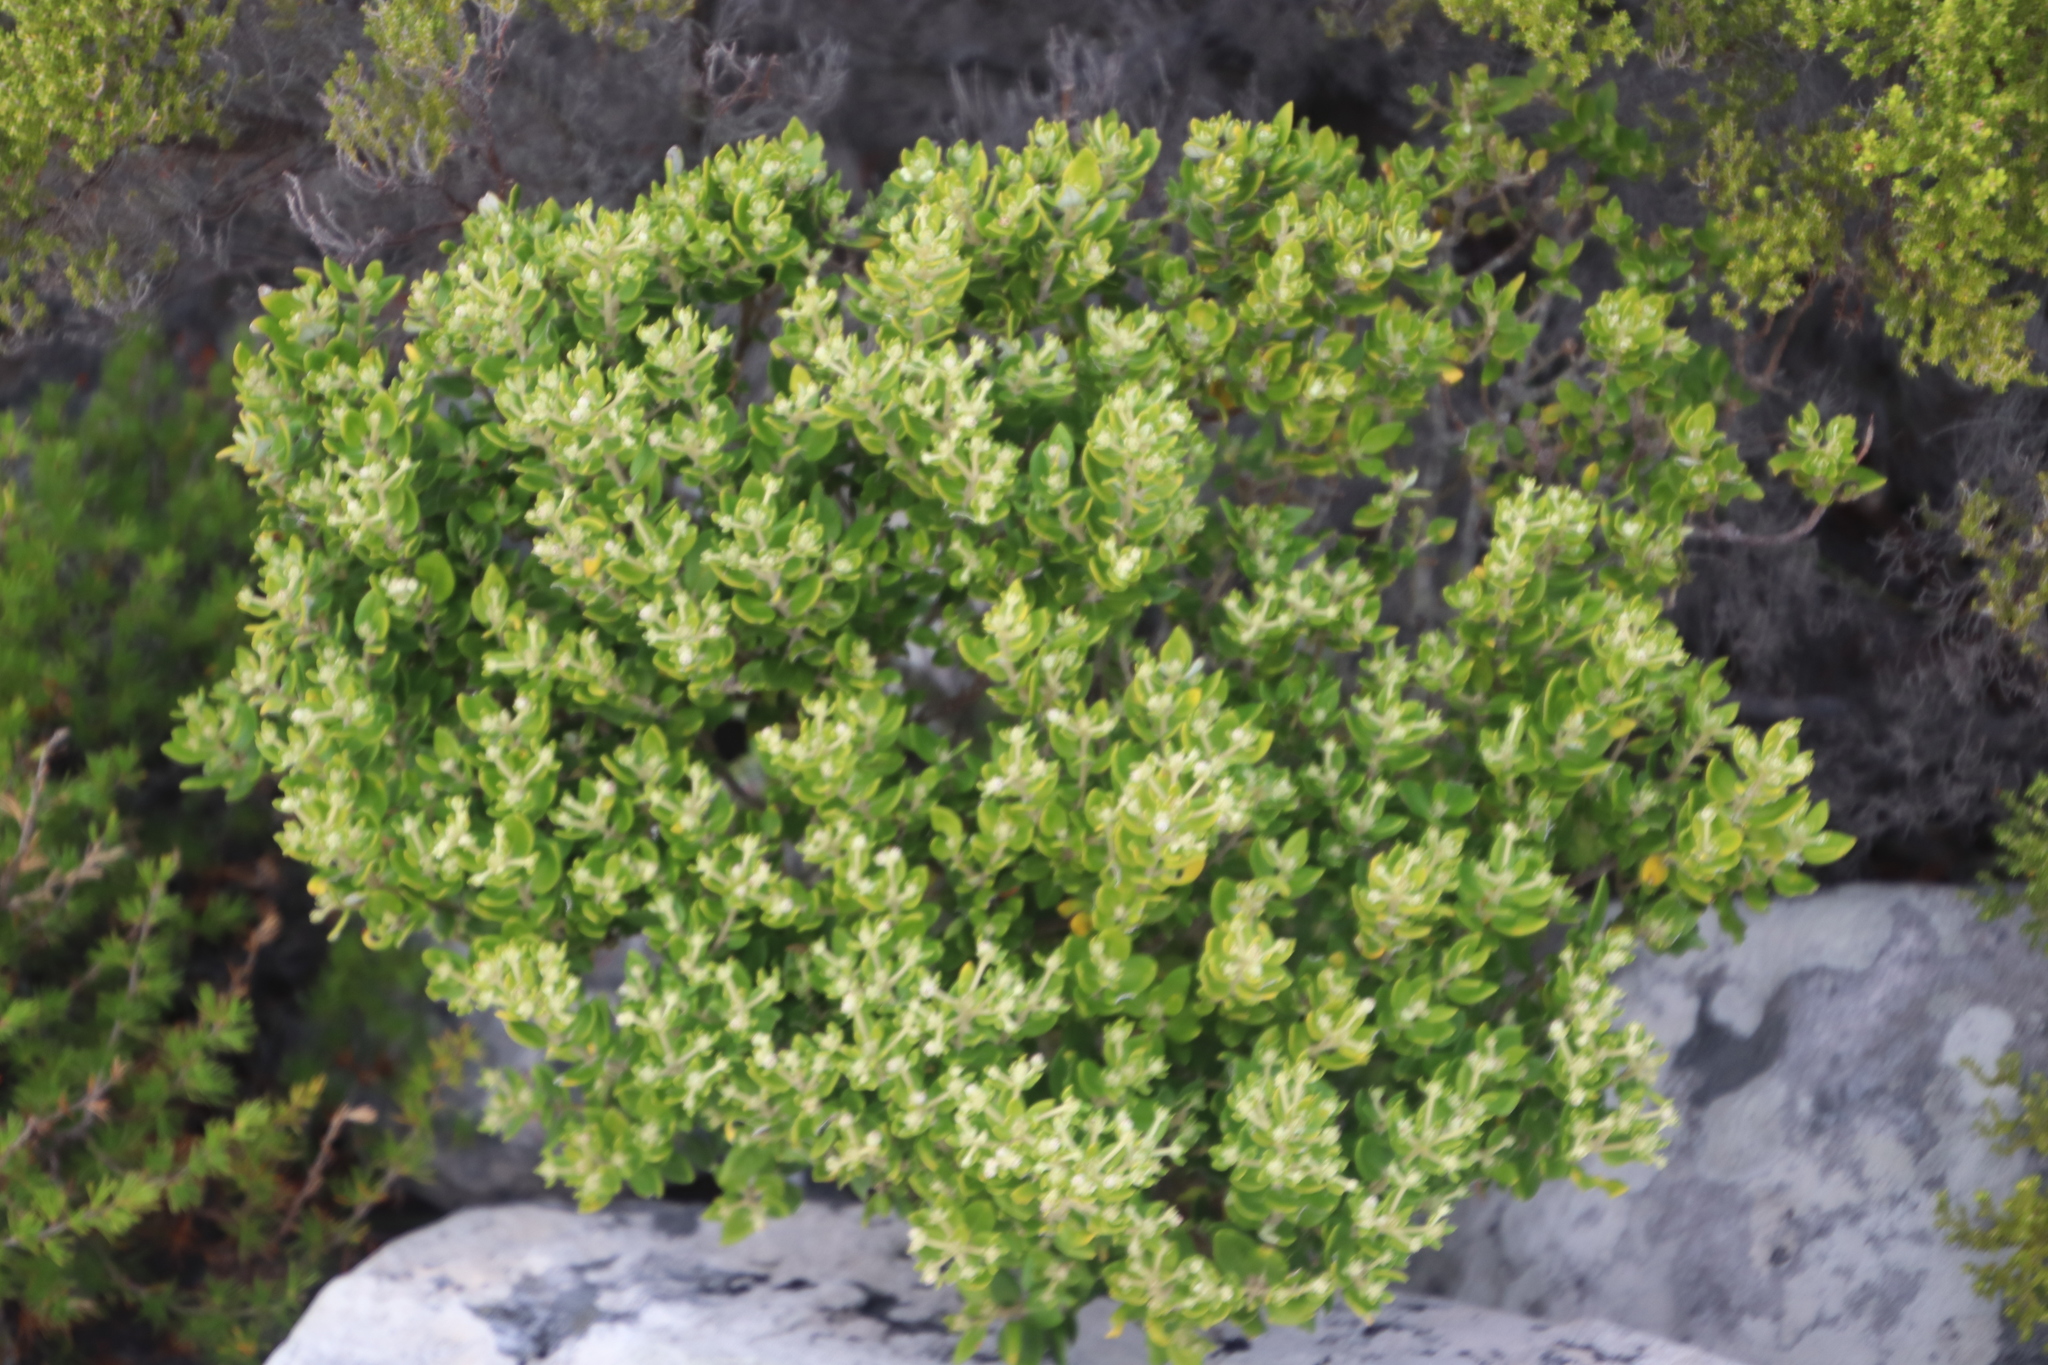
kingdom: Plantae
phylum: Tracheophyta
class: Magnoliopsida
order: Rosales
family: Rhamnaceae
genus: Phylica
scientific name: Phylica buxifolia
